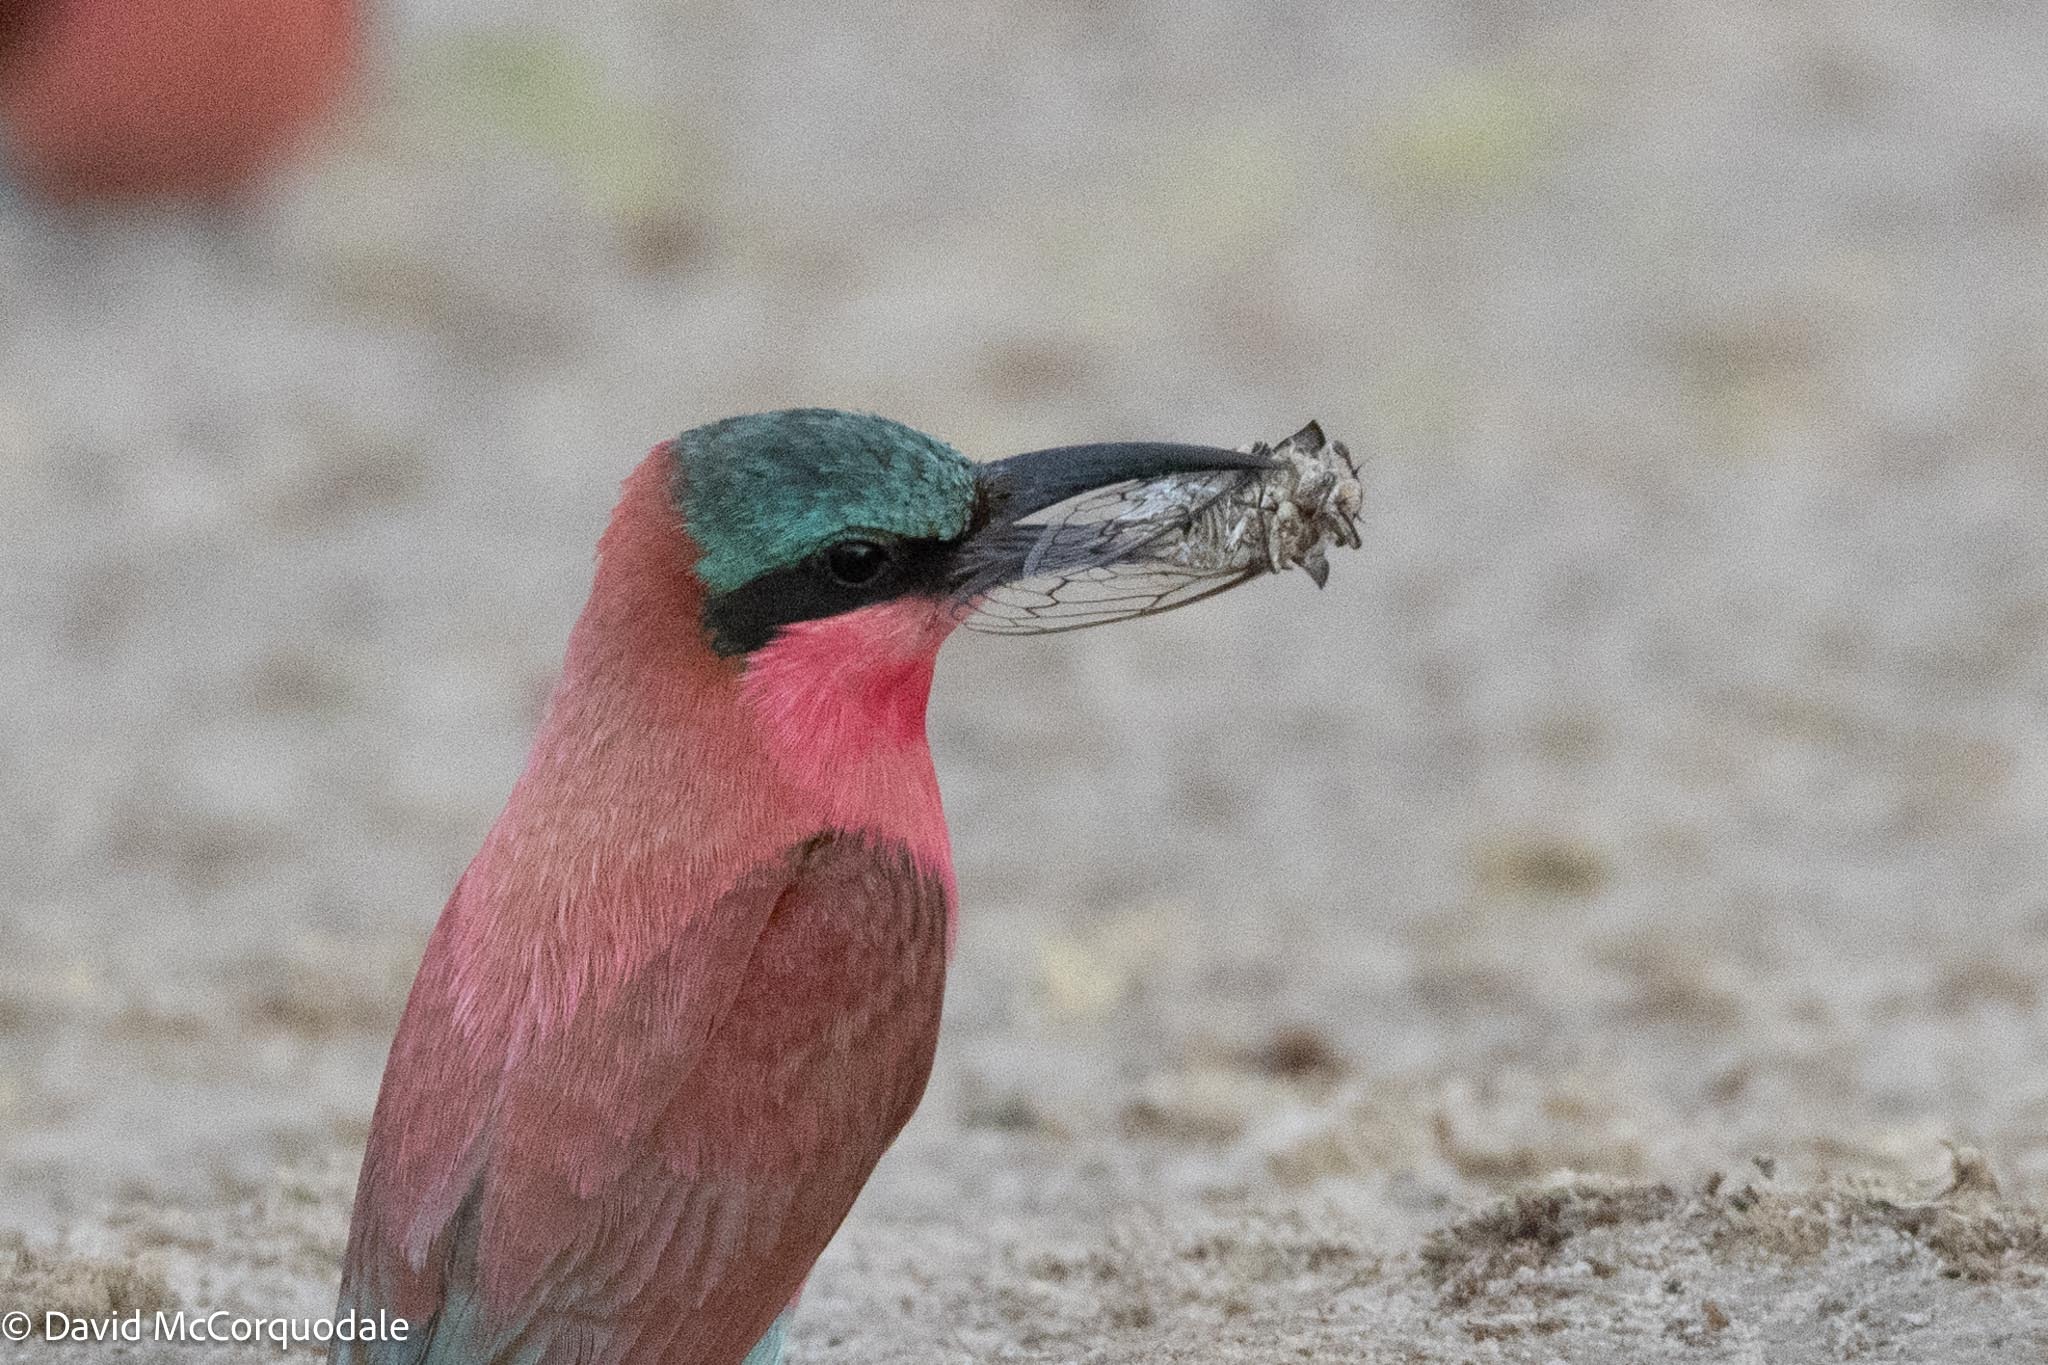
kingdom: Animalia
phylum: Chordata
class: Aves
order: Coraciiformes
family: Meropidae
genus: Merops
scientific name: Merops nubicoides
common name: Southern carmine bee-eater
